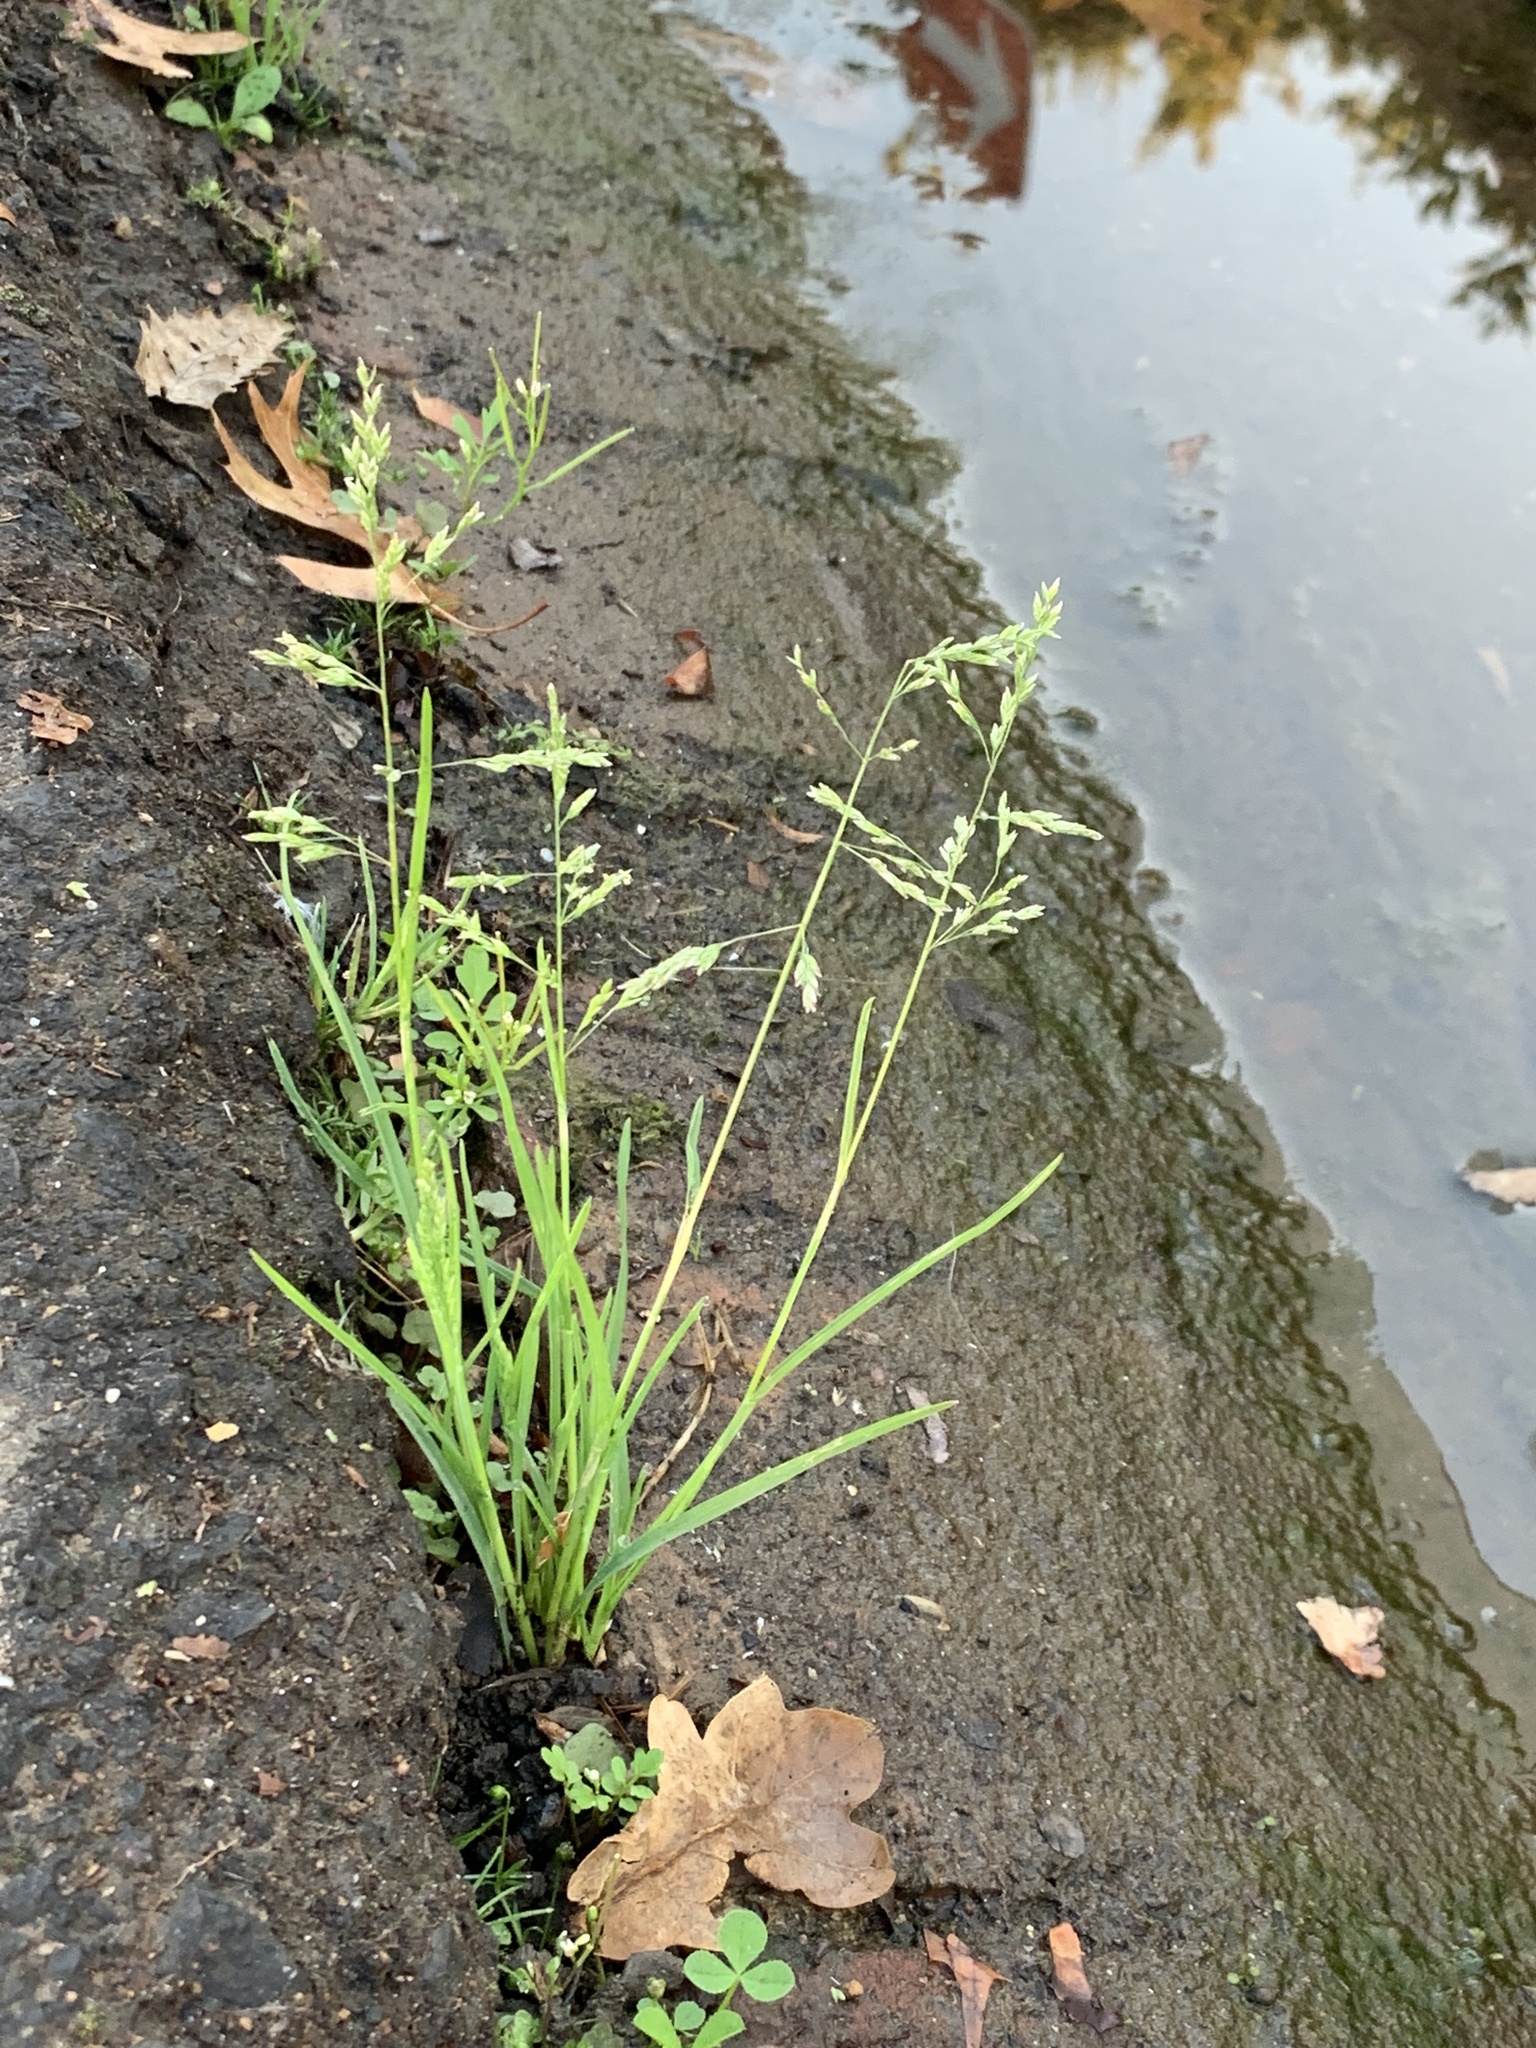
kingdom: Plantae
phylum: Tracheophyta
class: Liliopsida
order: Poales
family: Poaceae
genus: Poa
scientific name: Poa annua
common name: Annual bluegrass
